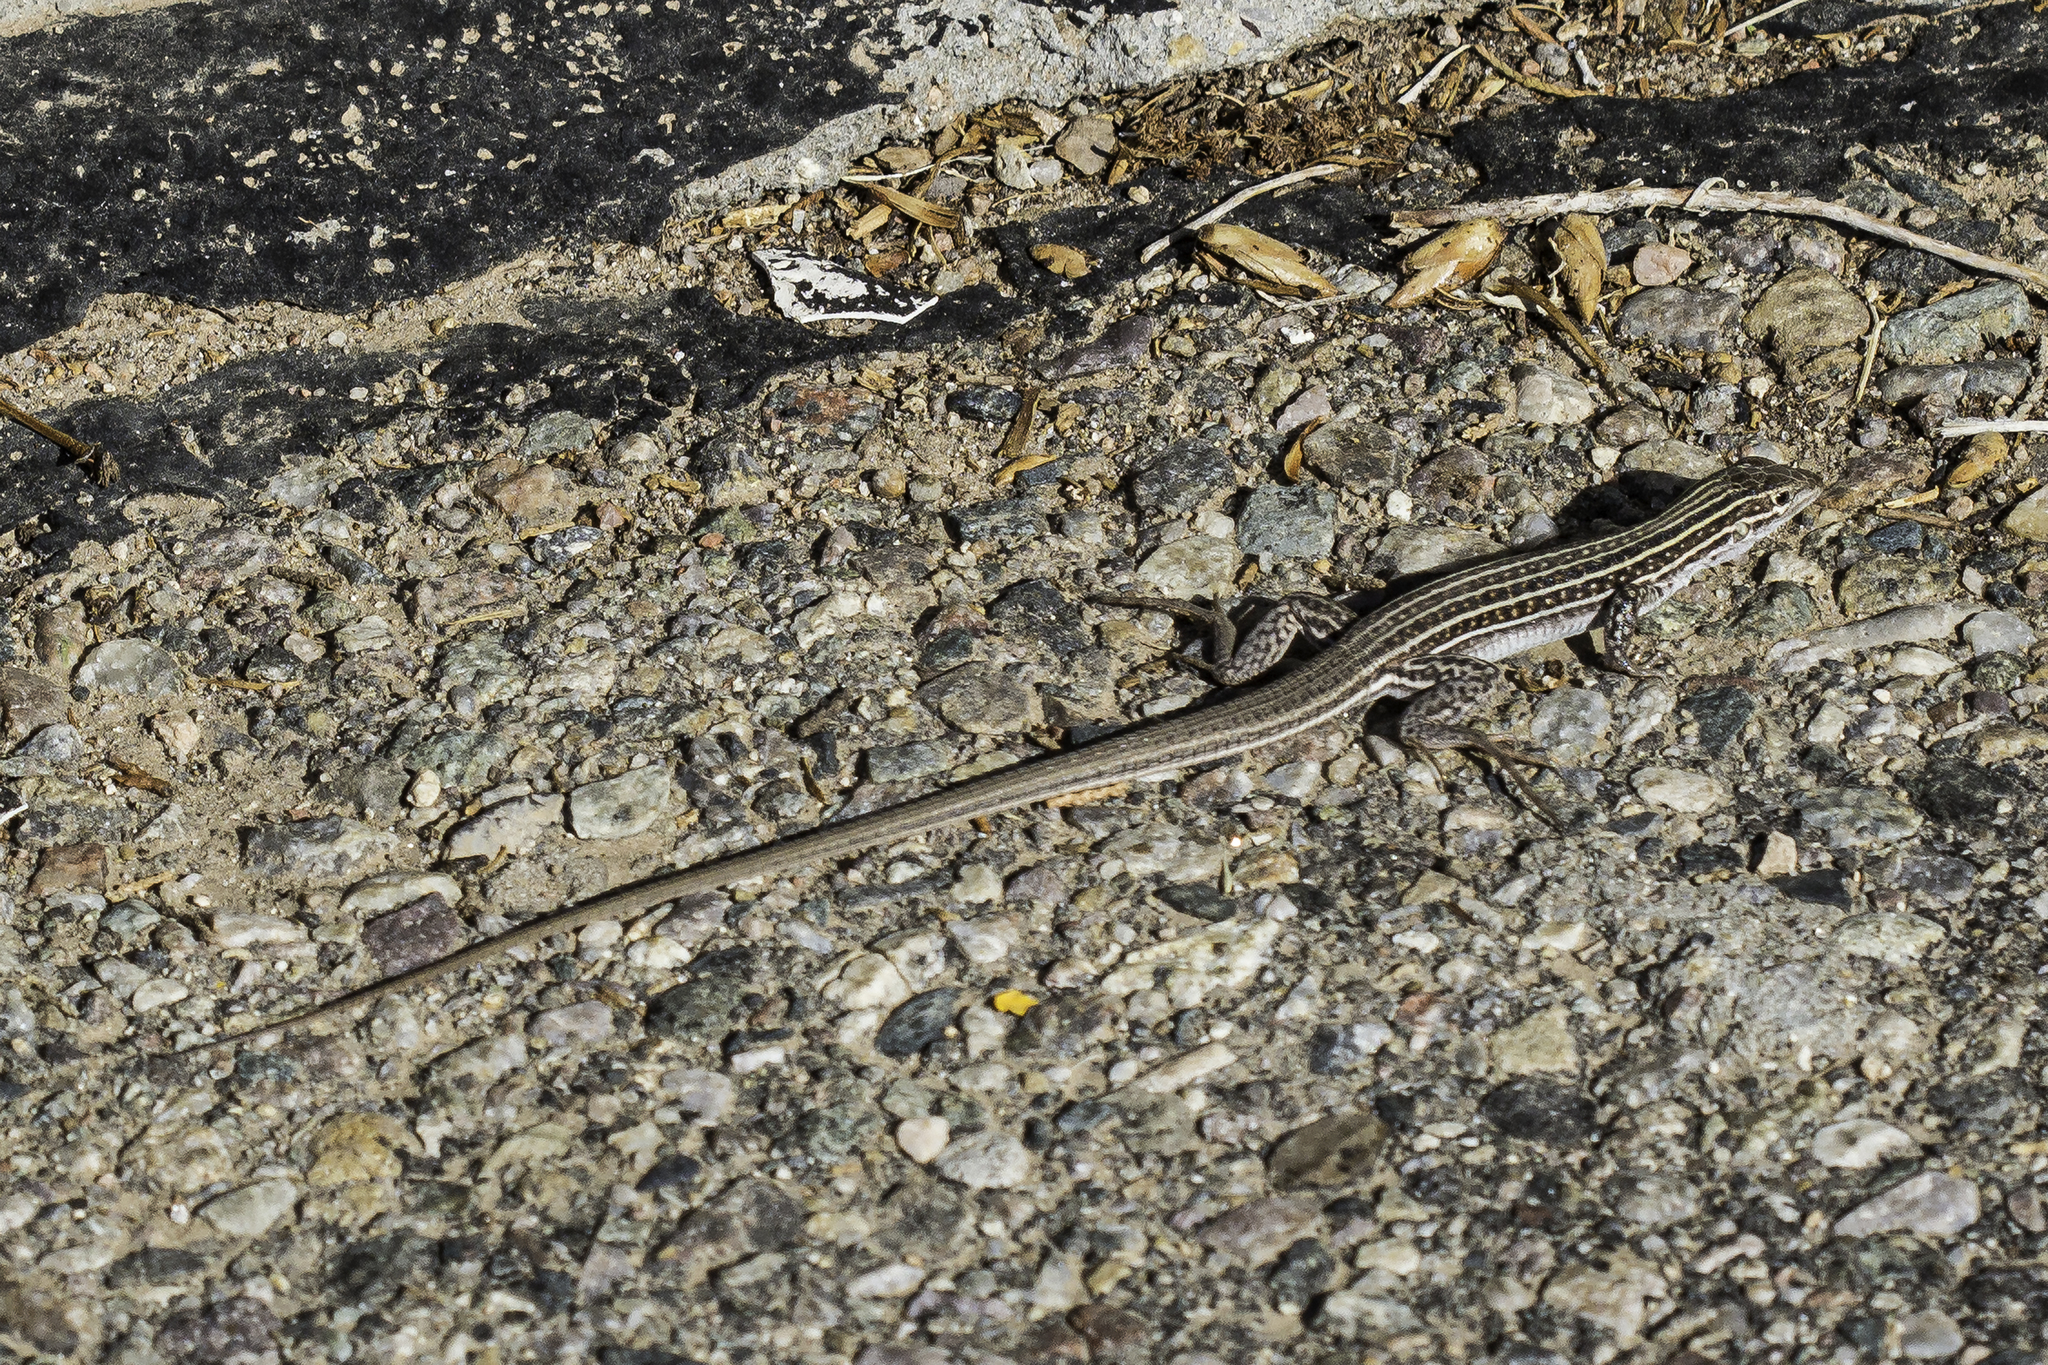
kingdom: Animalia
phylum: Chordata
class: Squamata
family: Teiidae
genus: Aspidoscelis
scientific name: Aspidoscelis exsanguis
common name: Chihuahuan spotted whiptail
